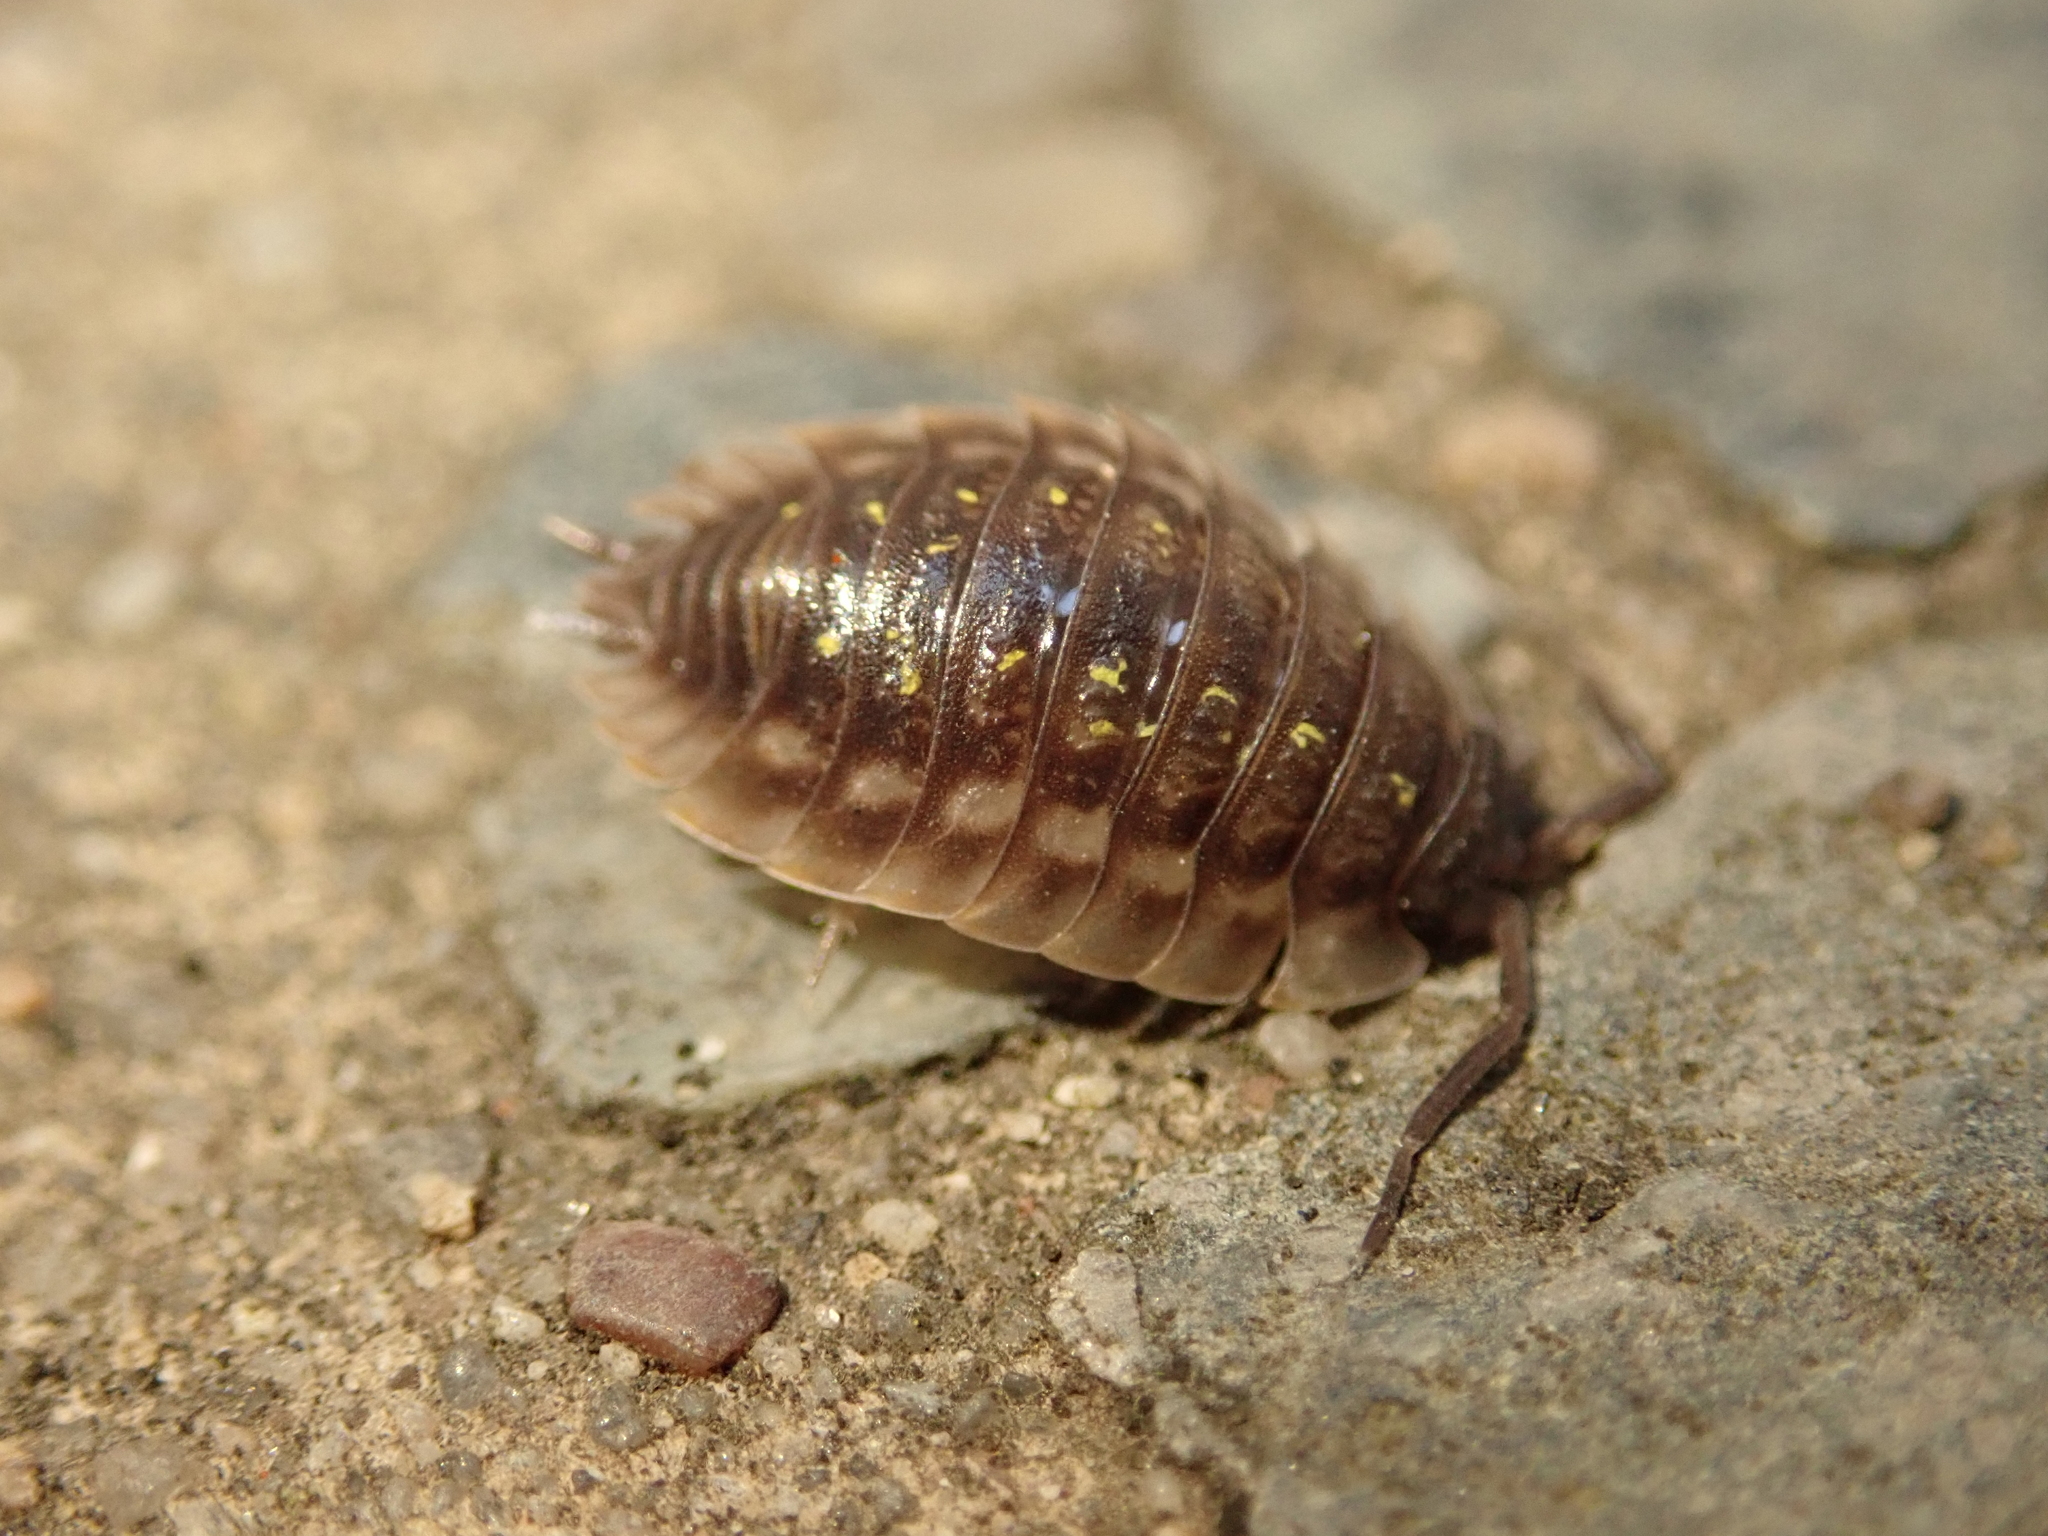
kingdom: Animalia
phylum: Arthropoda
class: Malacostraca
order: Isopoda
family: Oniscidae
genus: Oniscus
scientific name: Oniscus asellus
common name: Common shiny woodlouse
